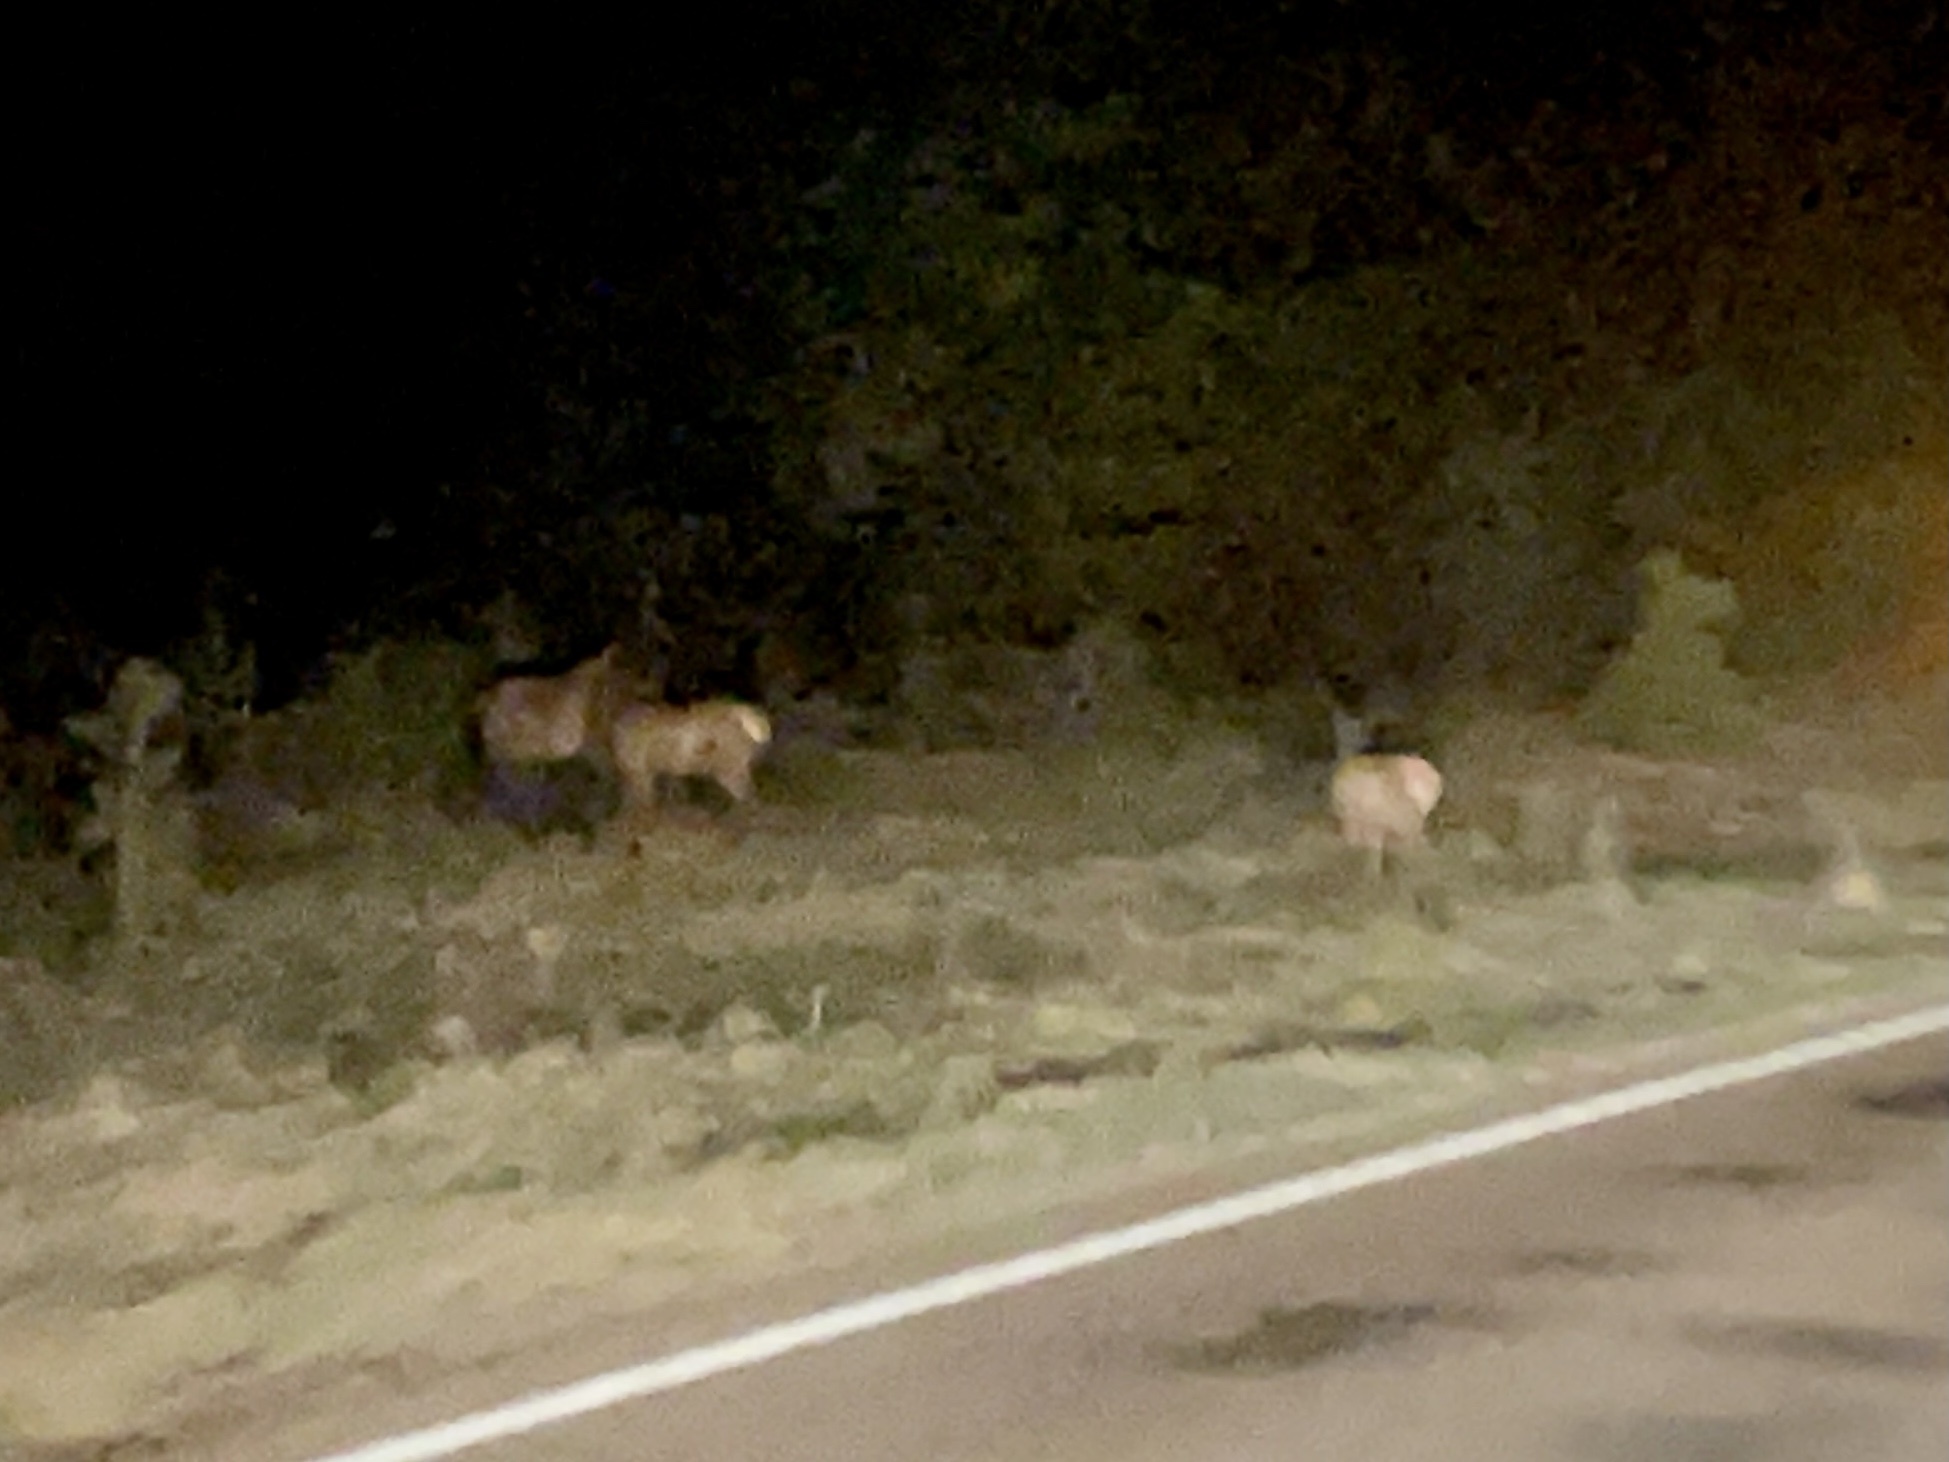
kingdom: Animalia
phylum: Chordata
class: Mammalia
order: Artiodactyla
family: Cervidae
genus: Cervus
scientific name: Cervus elaphus
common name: Red deer
